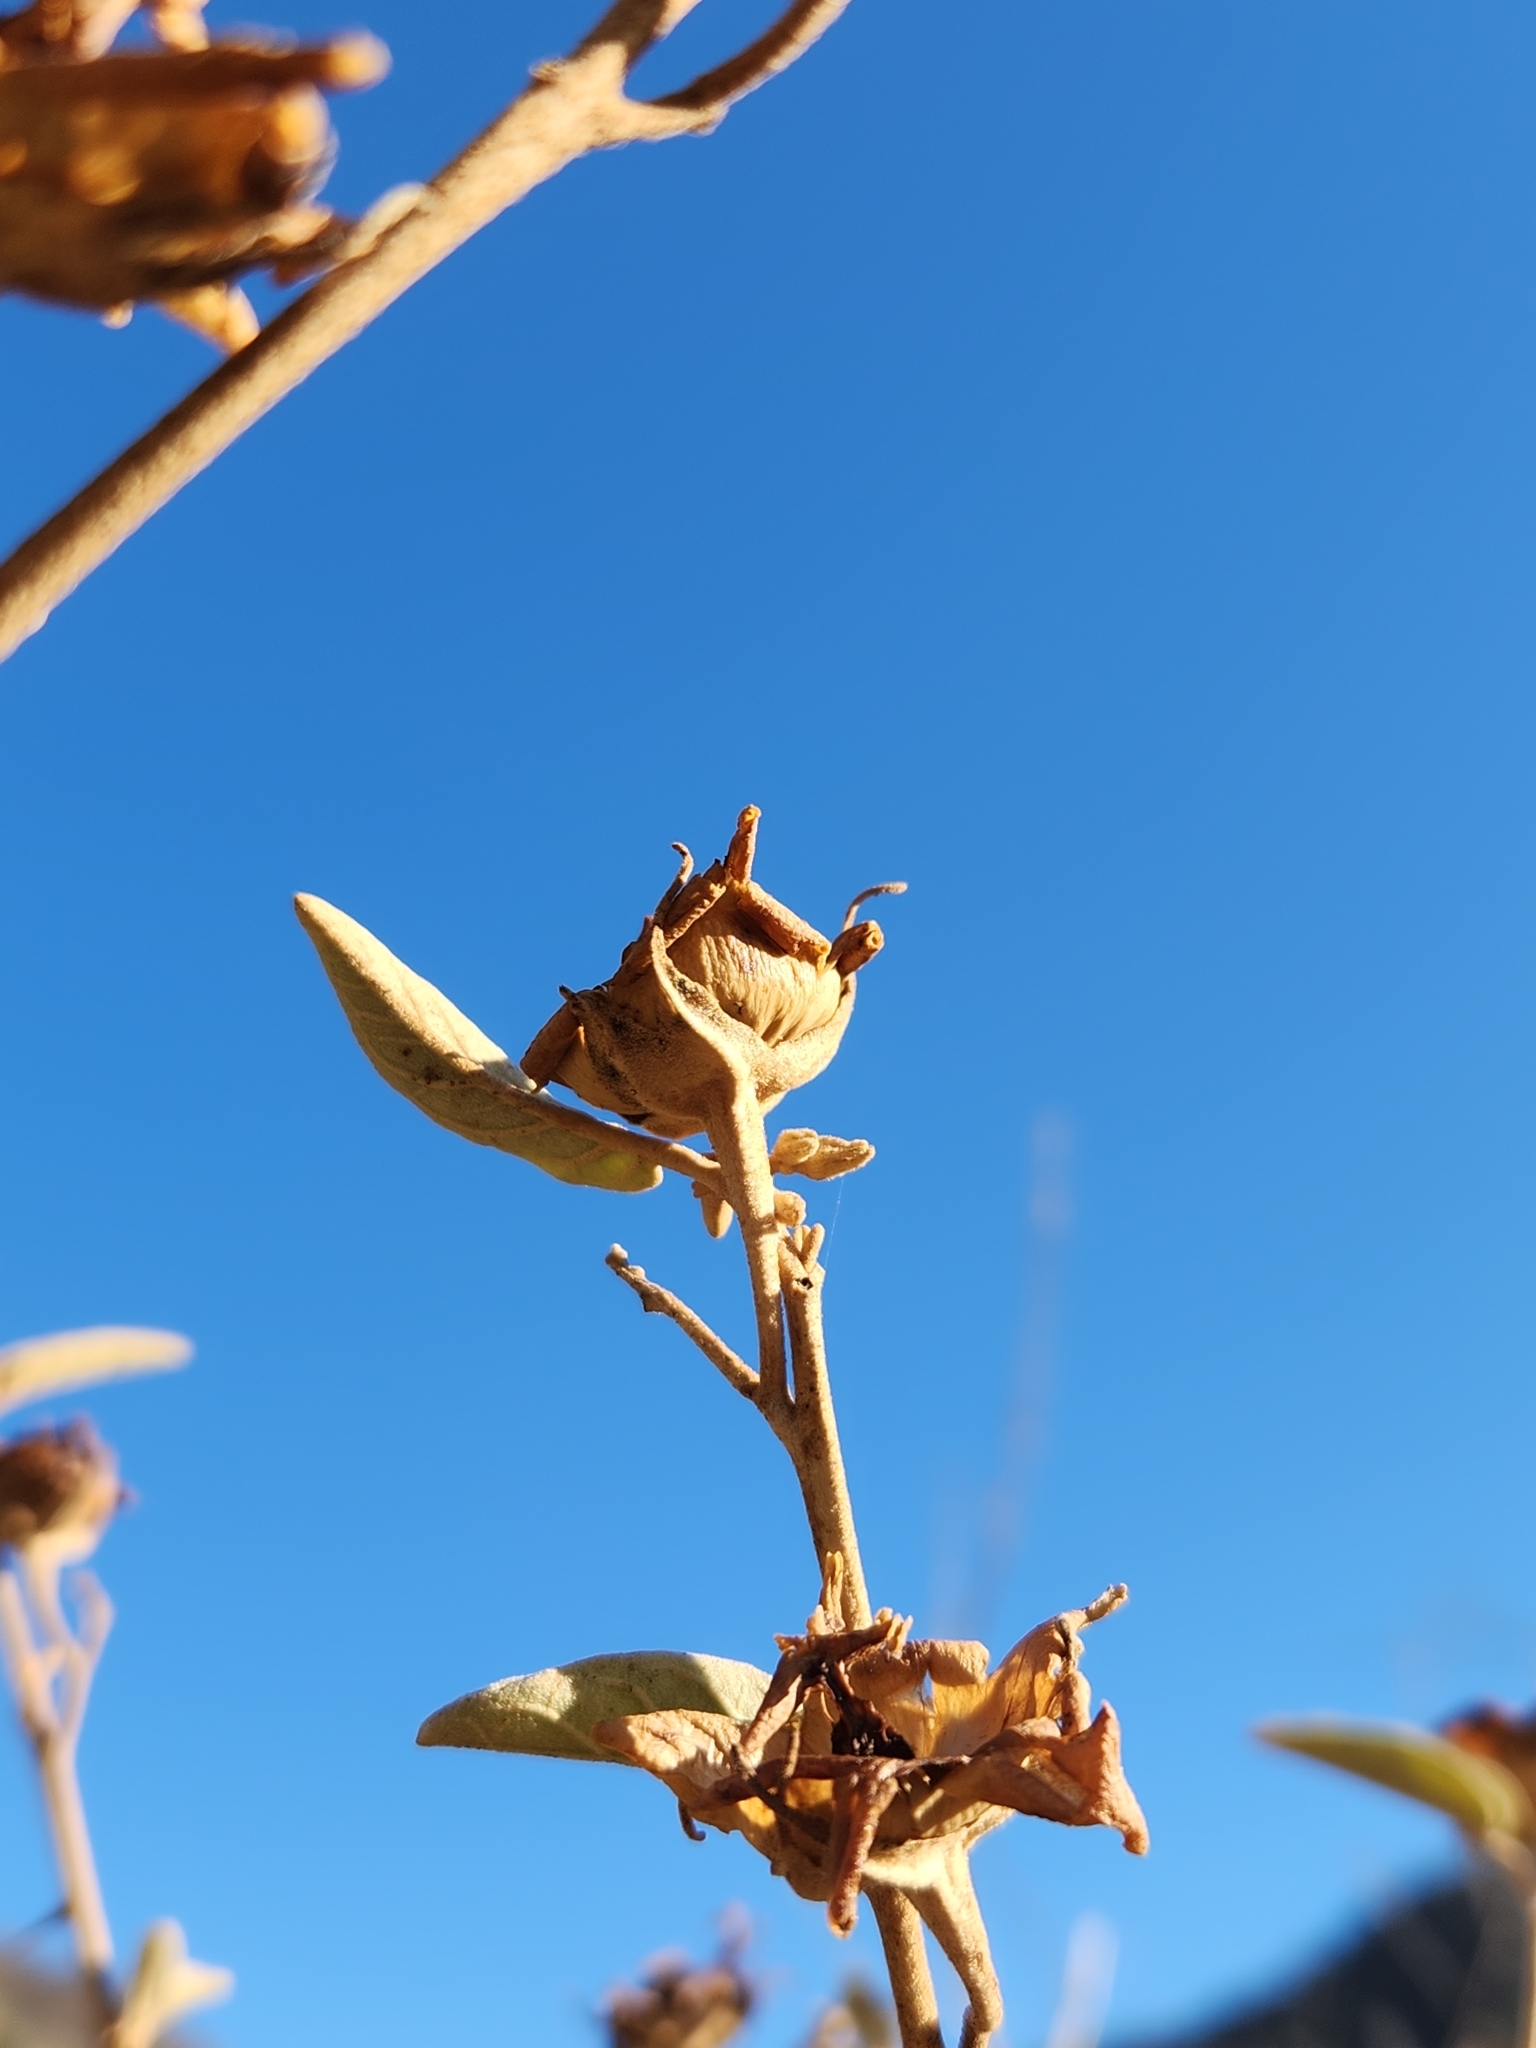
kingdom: Plantae
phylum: Tracheophyta
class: Magnoliopsida
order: Solanales
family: Solanaceae
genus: Solanum
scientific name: Solanum hindsianum
